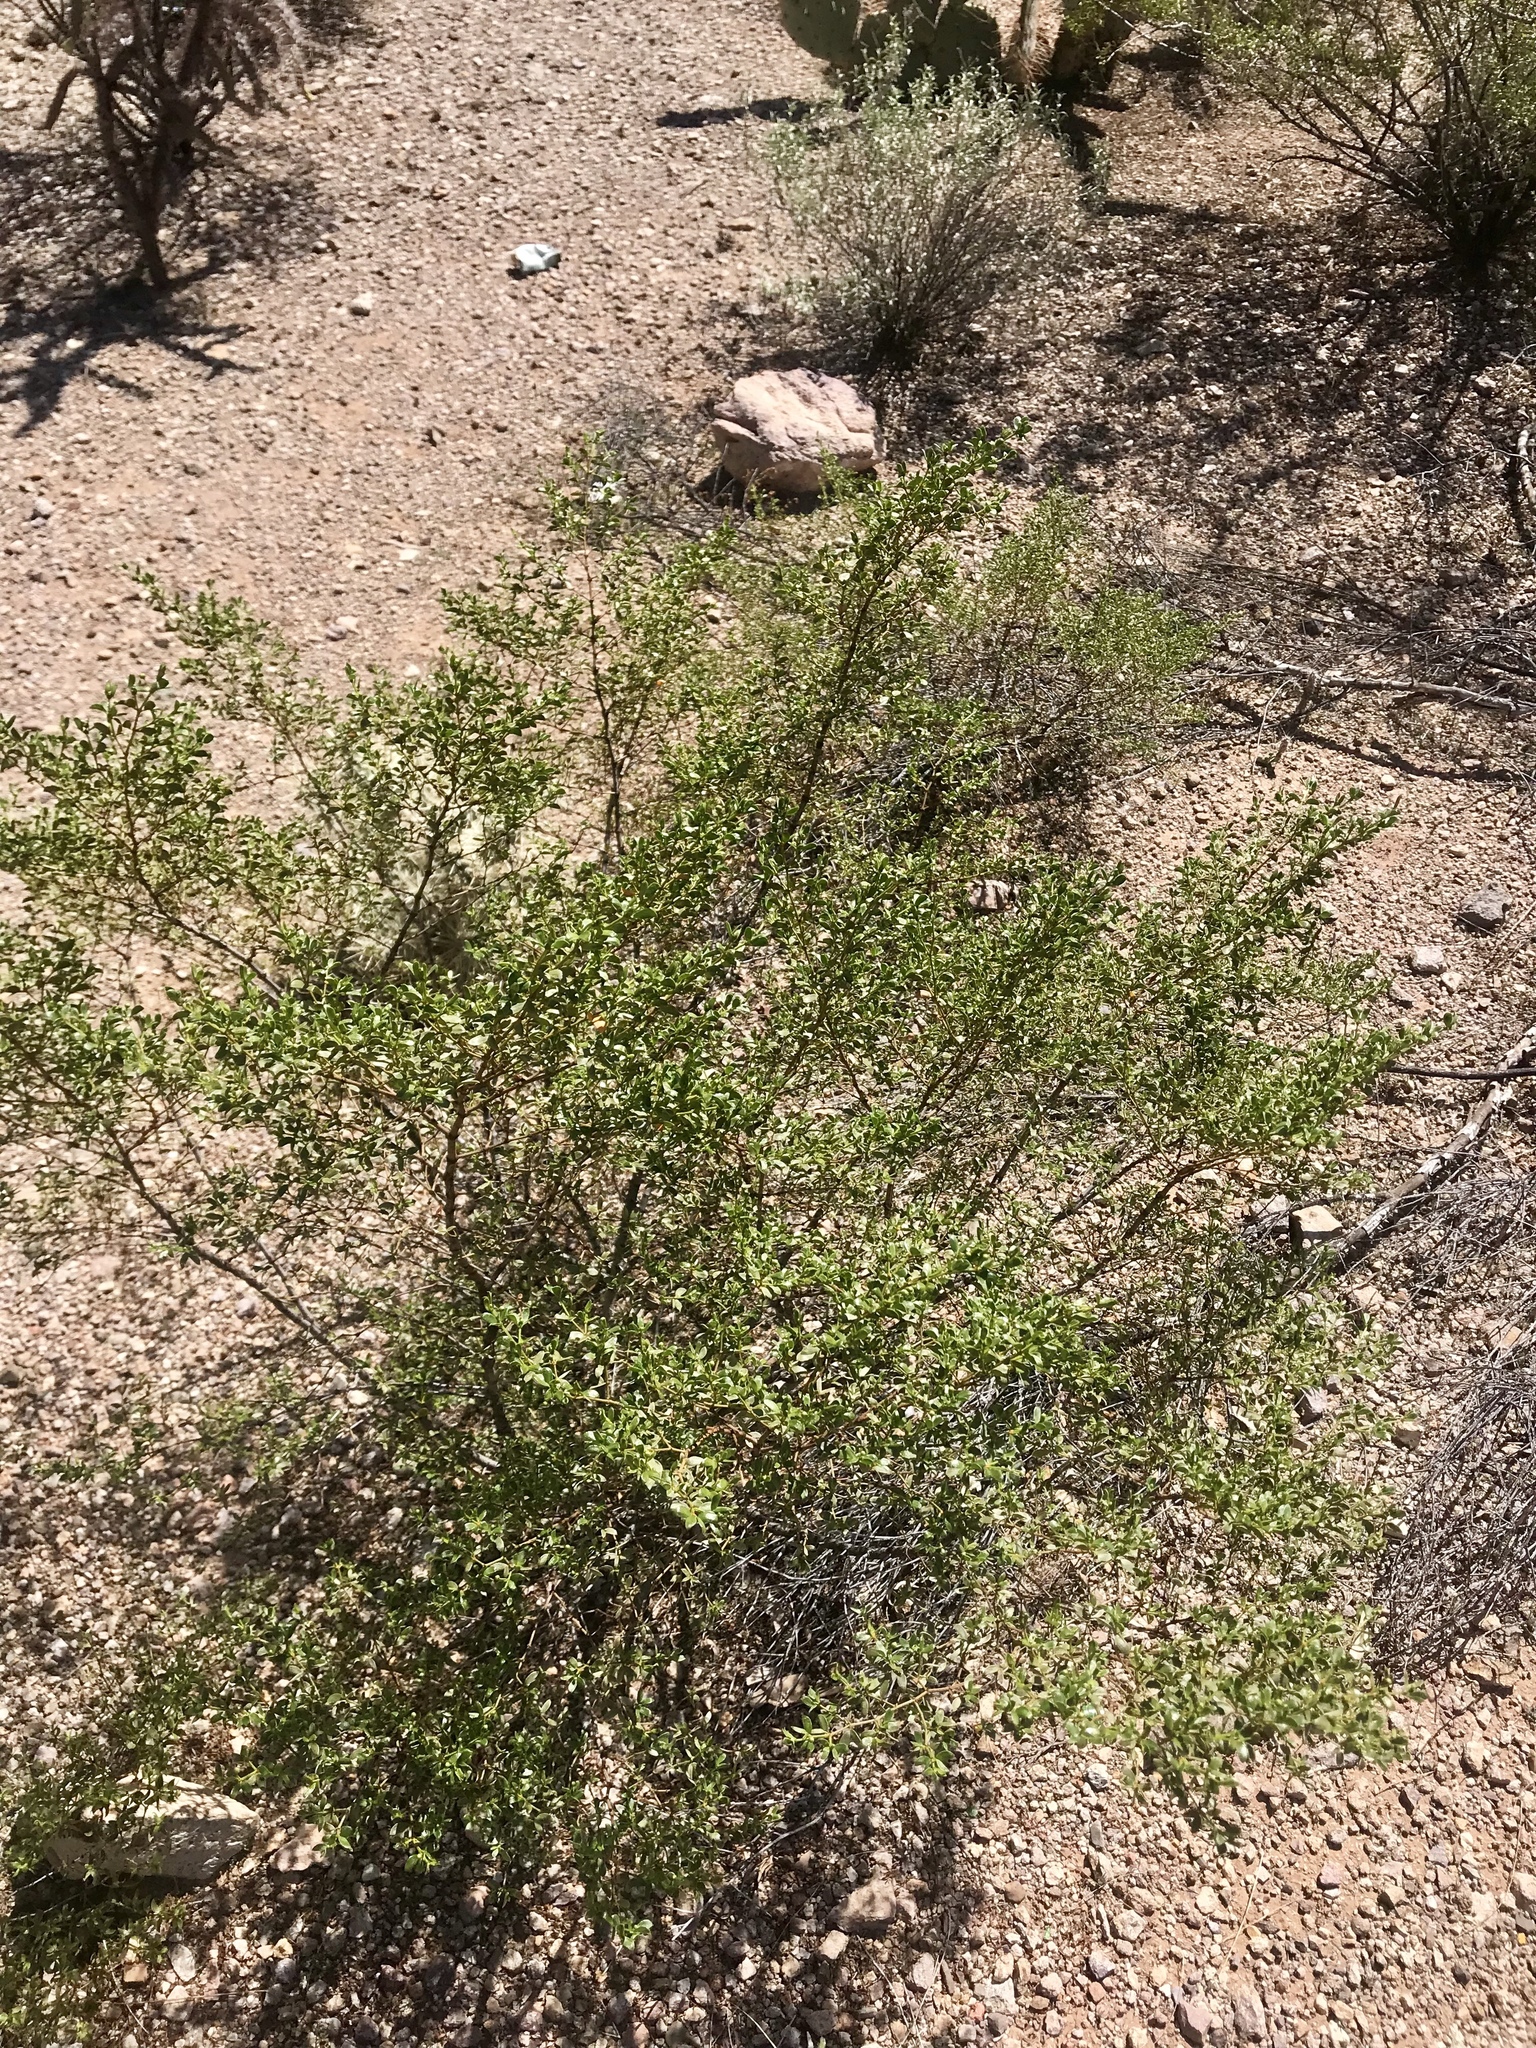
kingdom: Plantae
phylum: Tracheophyta
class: Magnoliopsida
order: Zygophyllales
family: Zygophyllaceae
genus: Larrea
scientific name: Larrea tridentata
